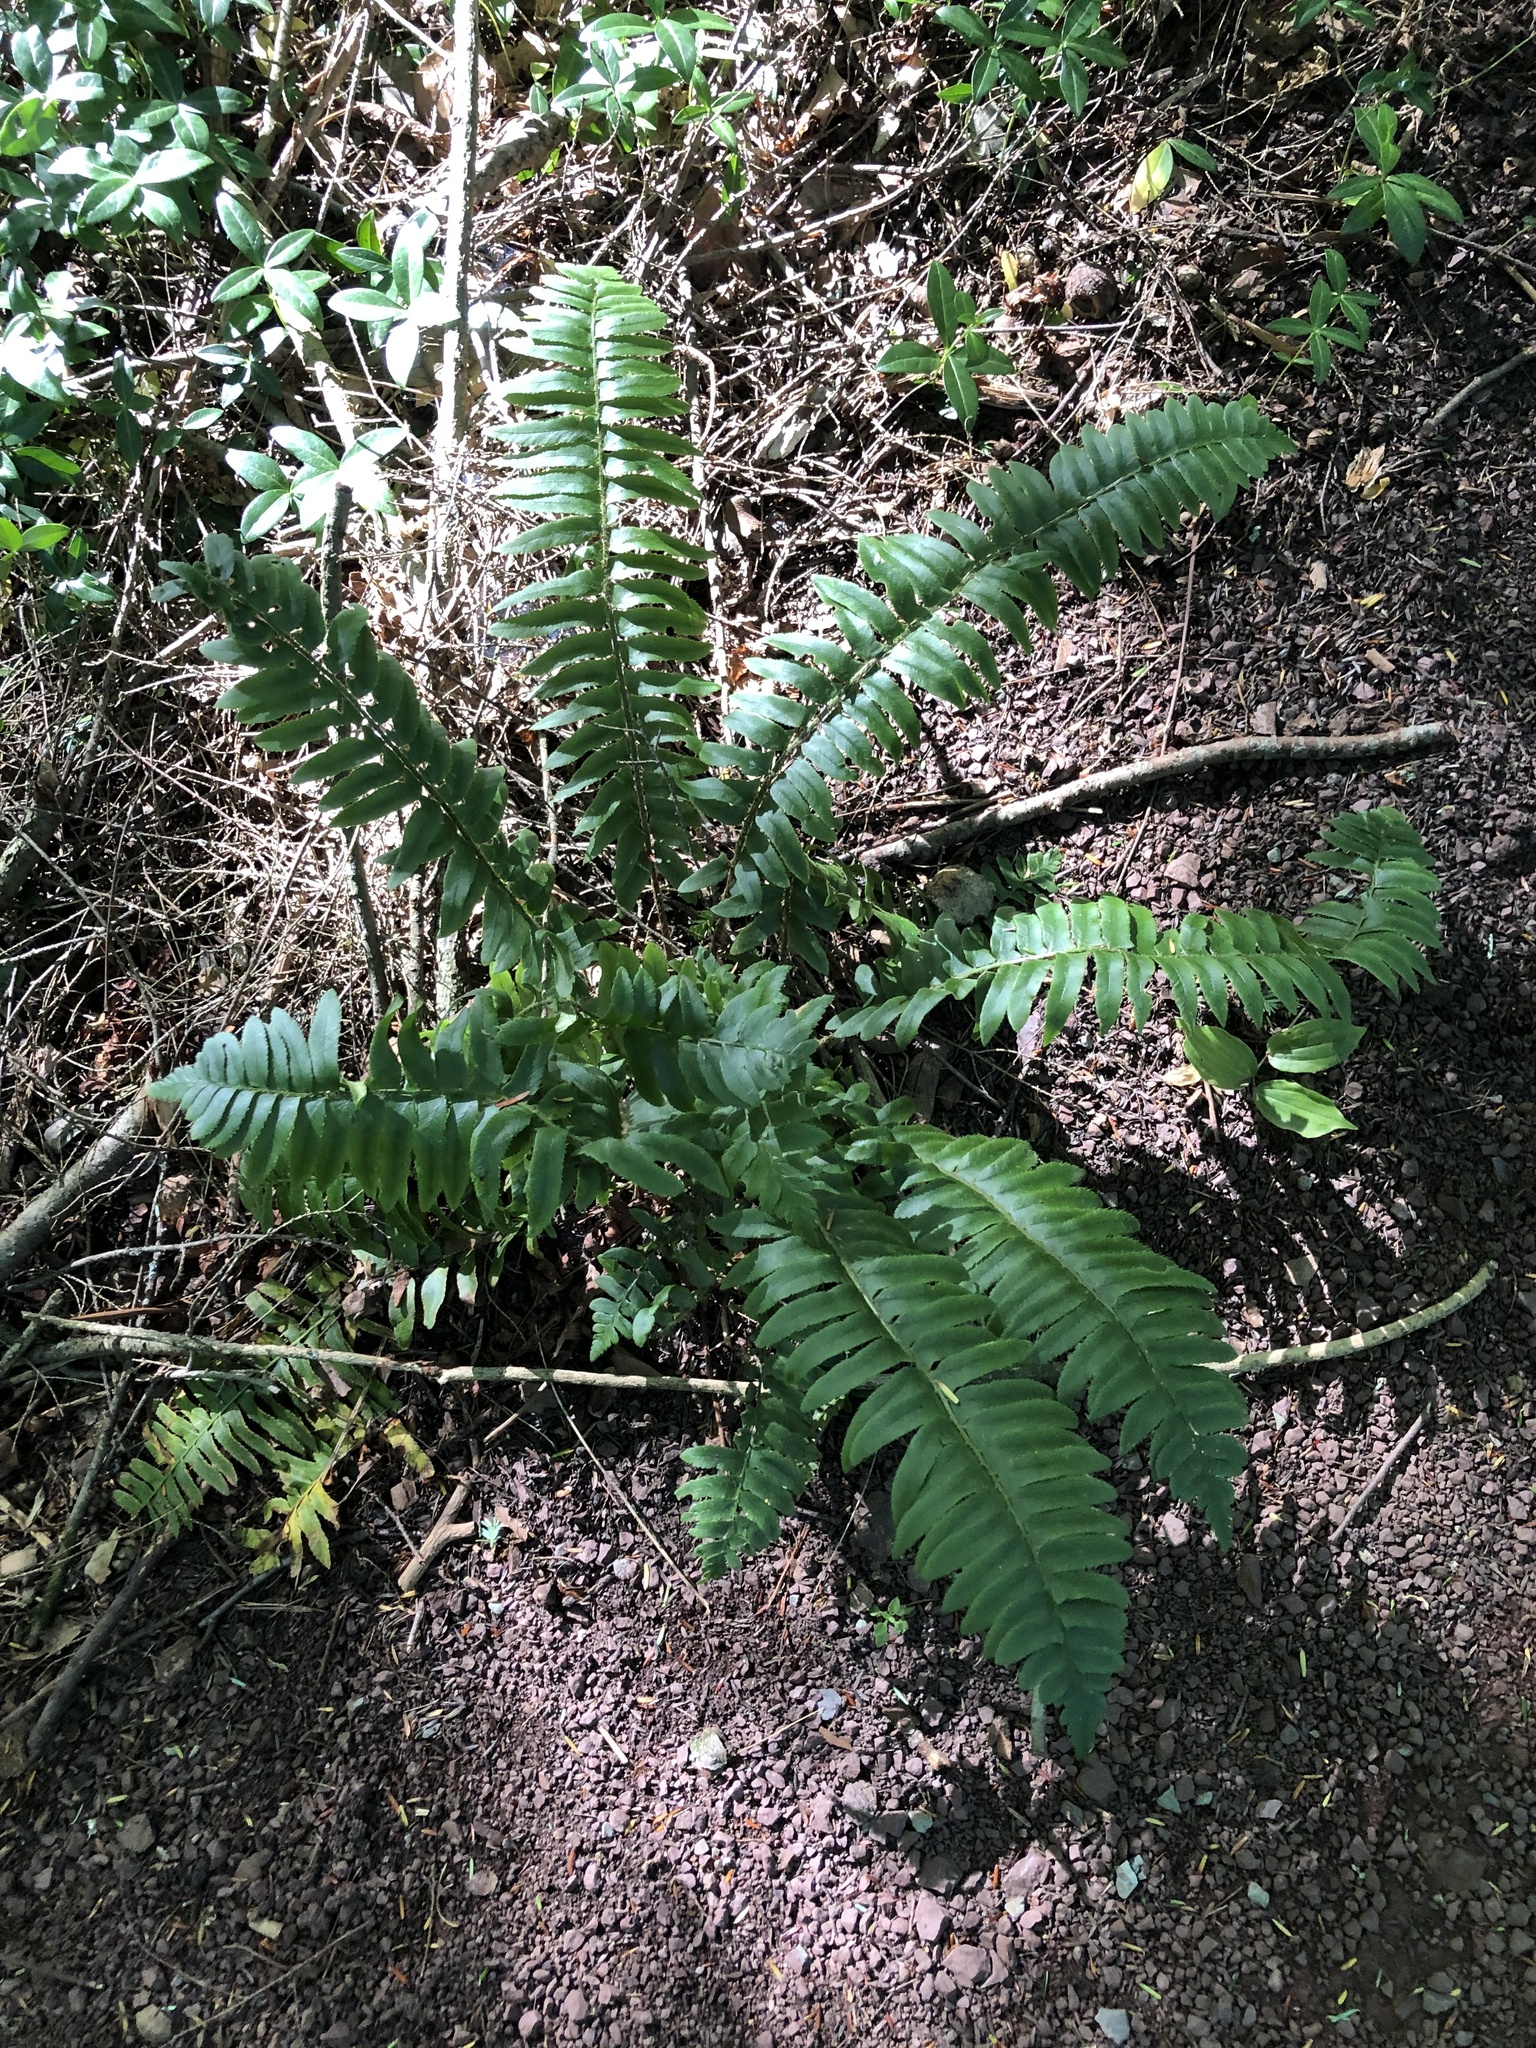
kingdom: Plantae
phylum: Tracheophyta
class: Polypodiopsida
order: Polypodiales
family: Dryopteridaceae
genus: Polystichum
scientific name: Polystichum acrostichoides
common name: Christmas fern
